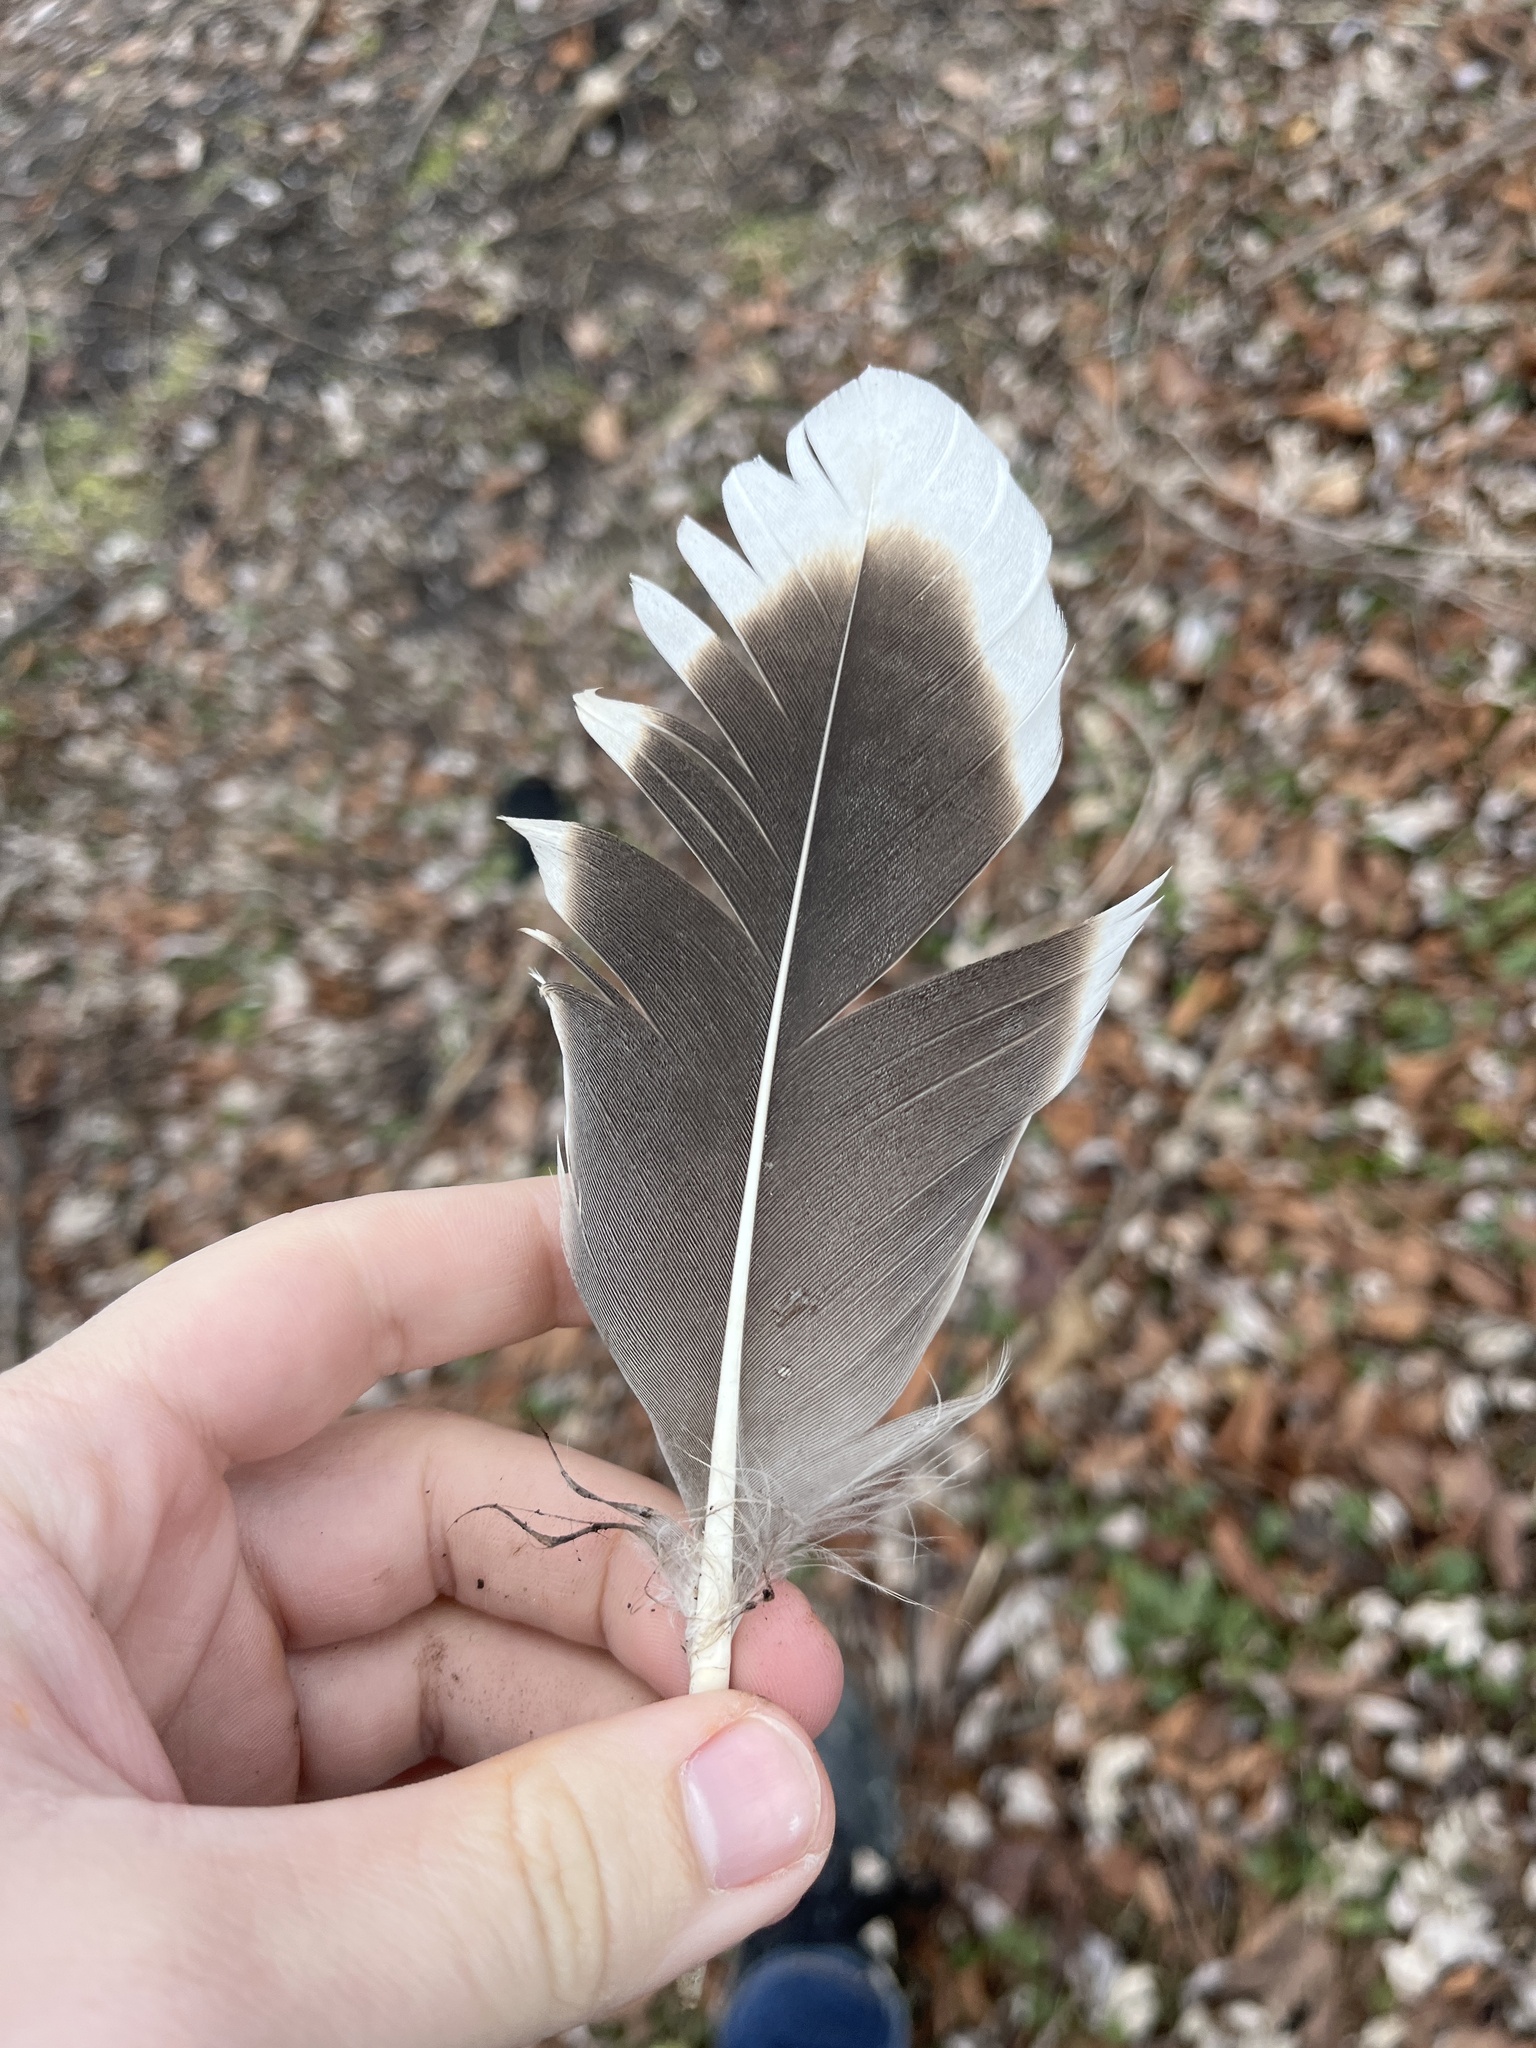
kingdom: Animalia
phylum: Chordata
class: Aves
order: Anseriformes
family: Anatidae
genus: Anser
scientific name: Anser
